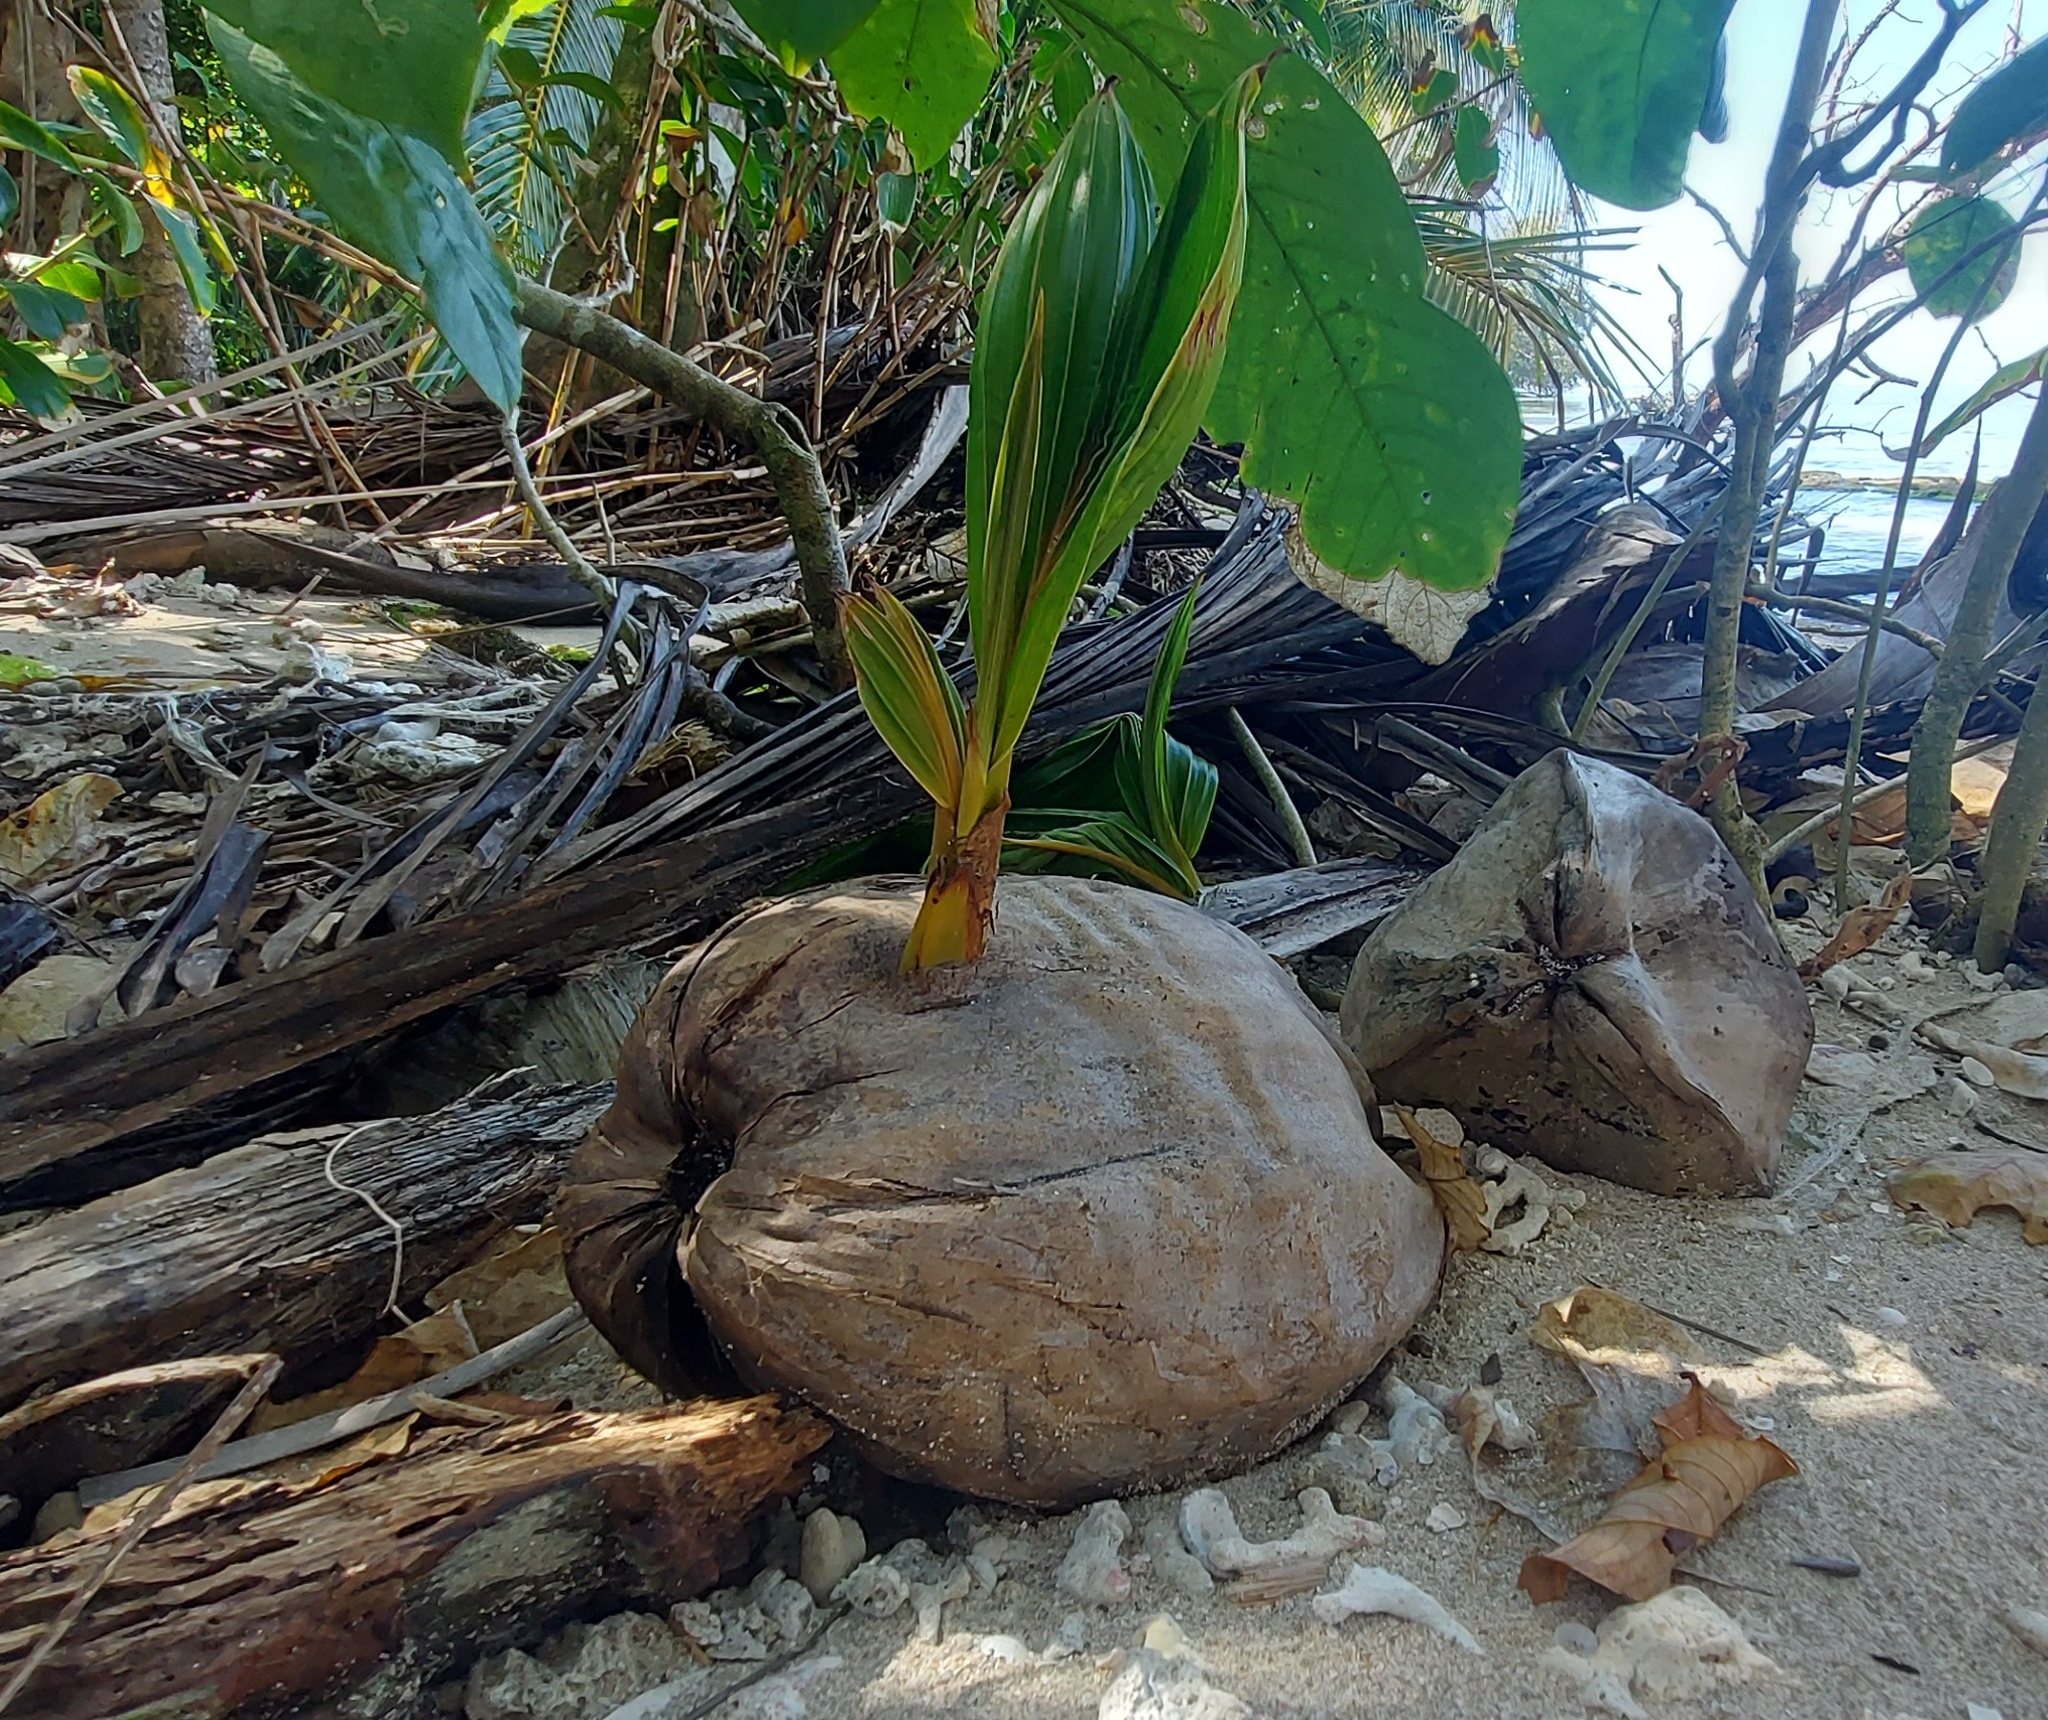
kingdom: Plantae
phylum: Tracheophyta
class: Liliopsida
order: Arecales
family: Arecaceae
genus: Cocos
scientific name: Cocos nucifera
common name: Coconut palm
